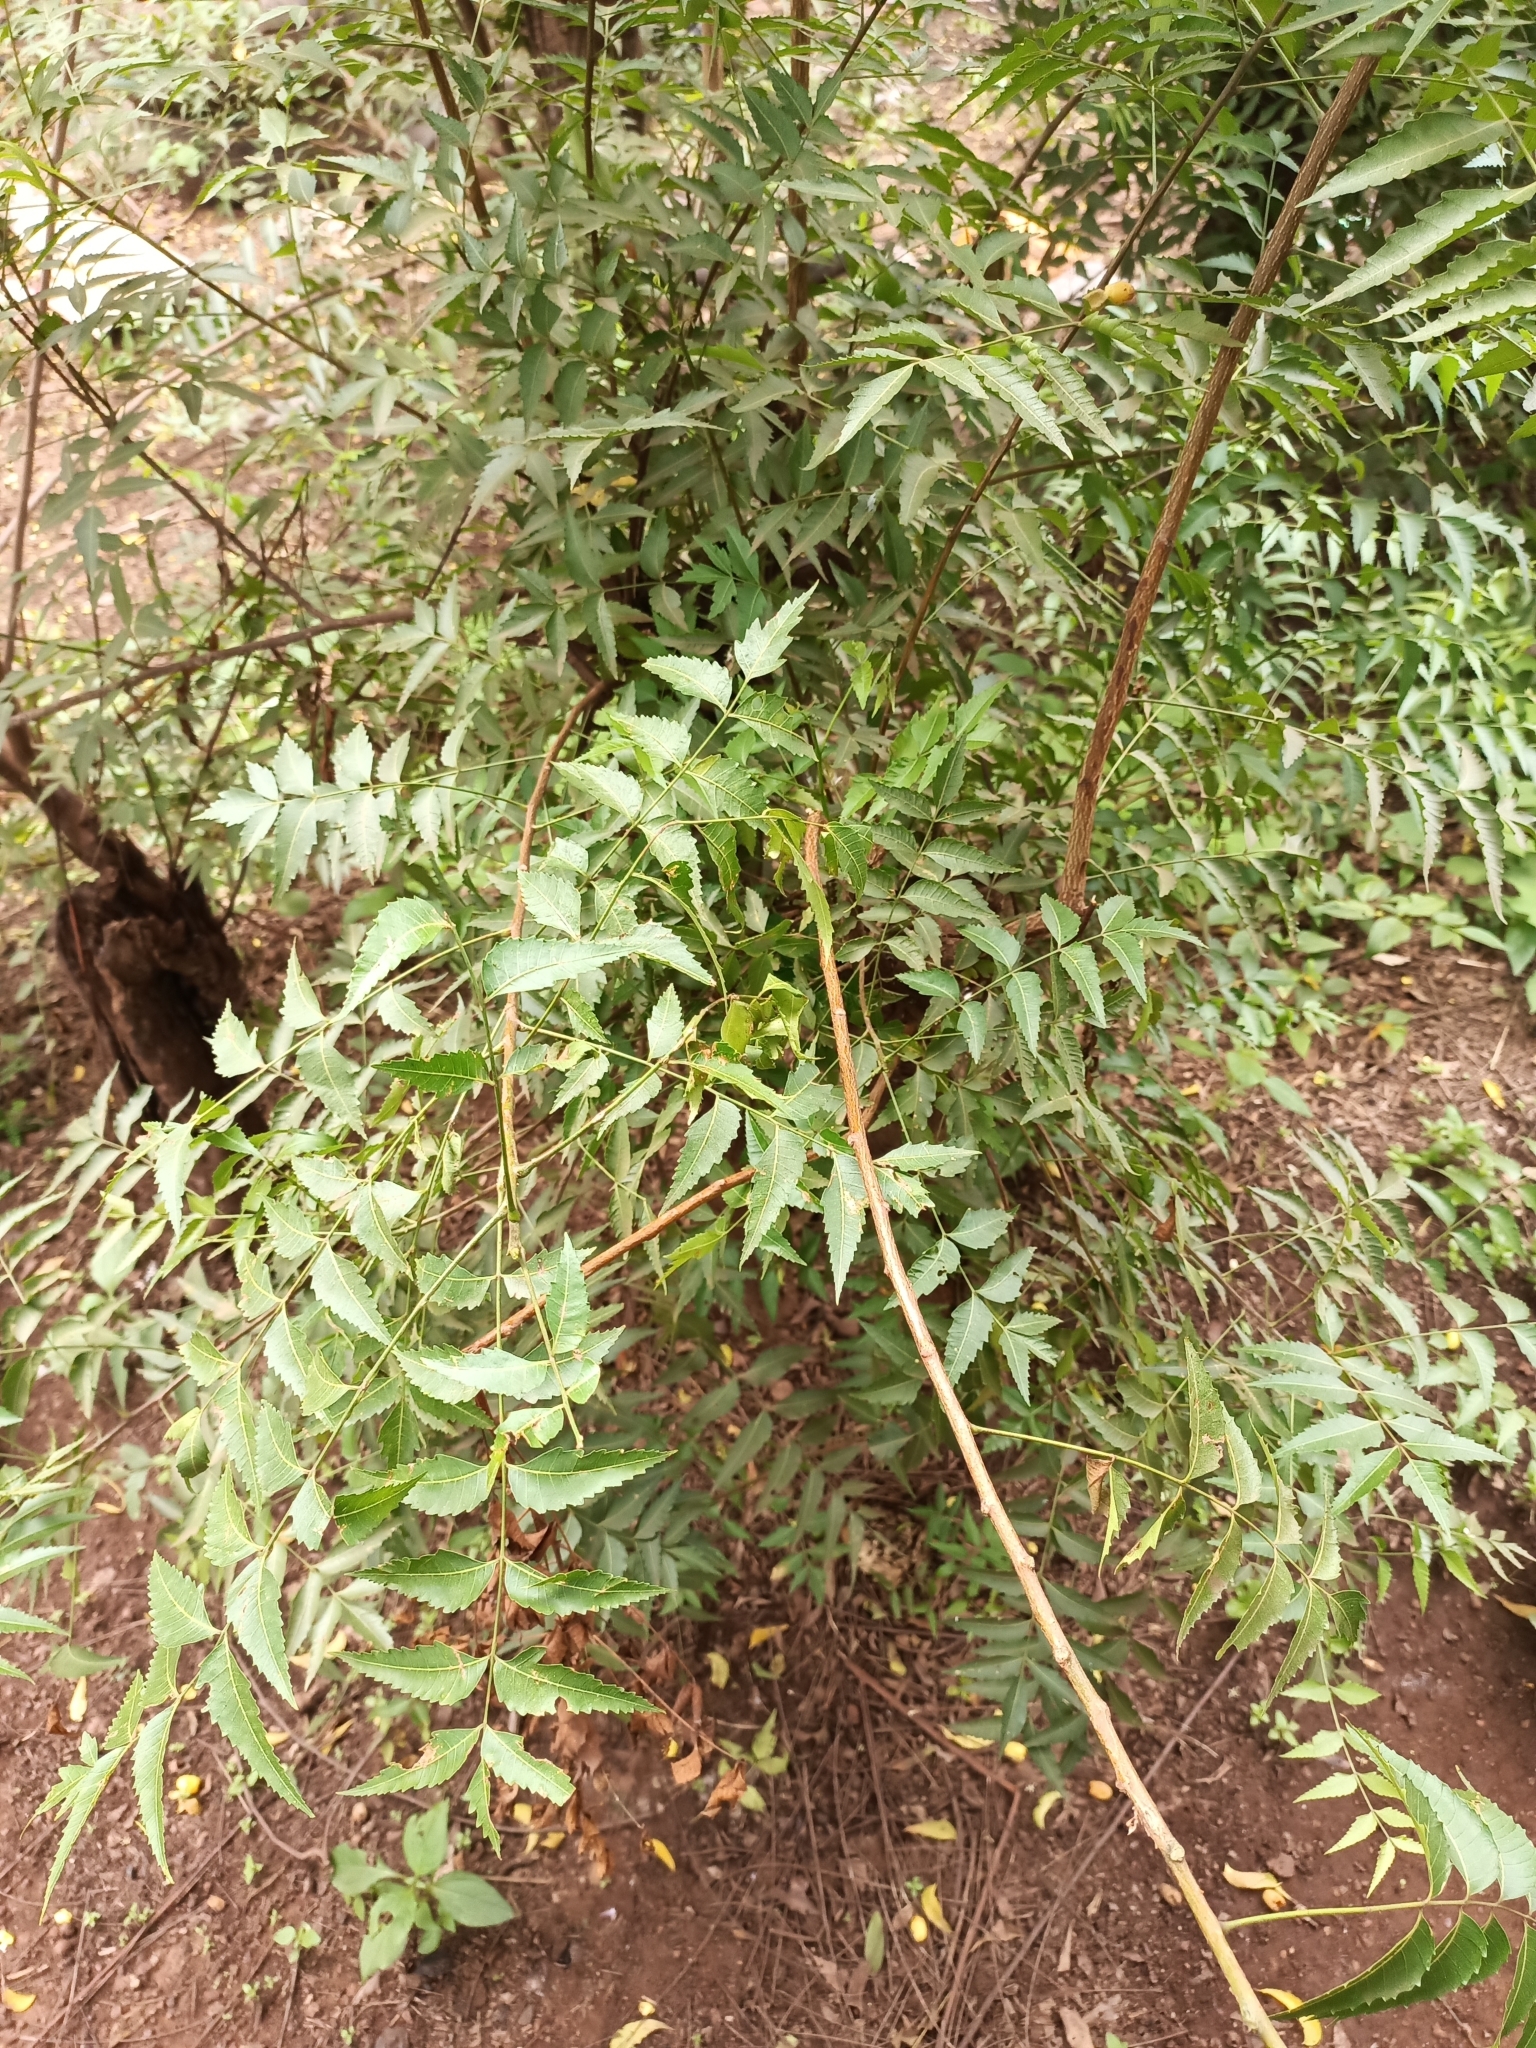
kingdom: Plantae
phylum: Tracheophyta
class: Magnoliopsida
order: Sapindales
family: Meliaceae
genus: Azadirachta
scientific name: Azadirachta indica
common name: Neem
